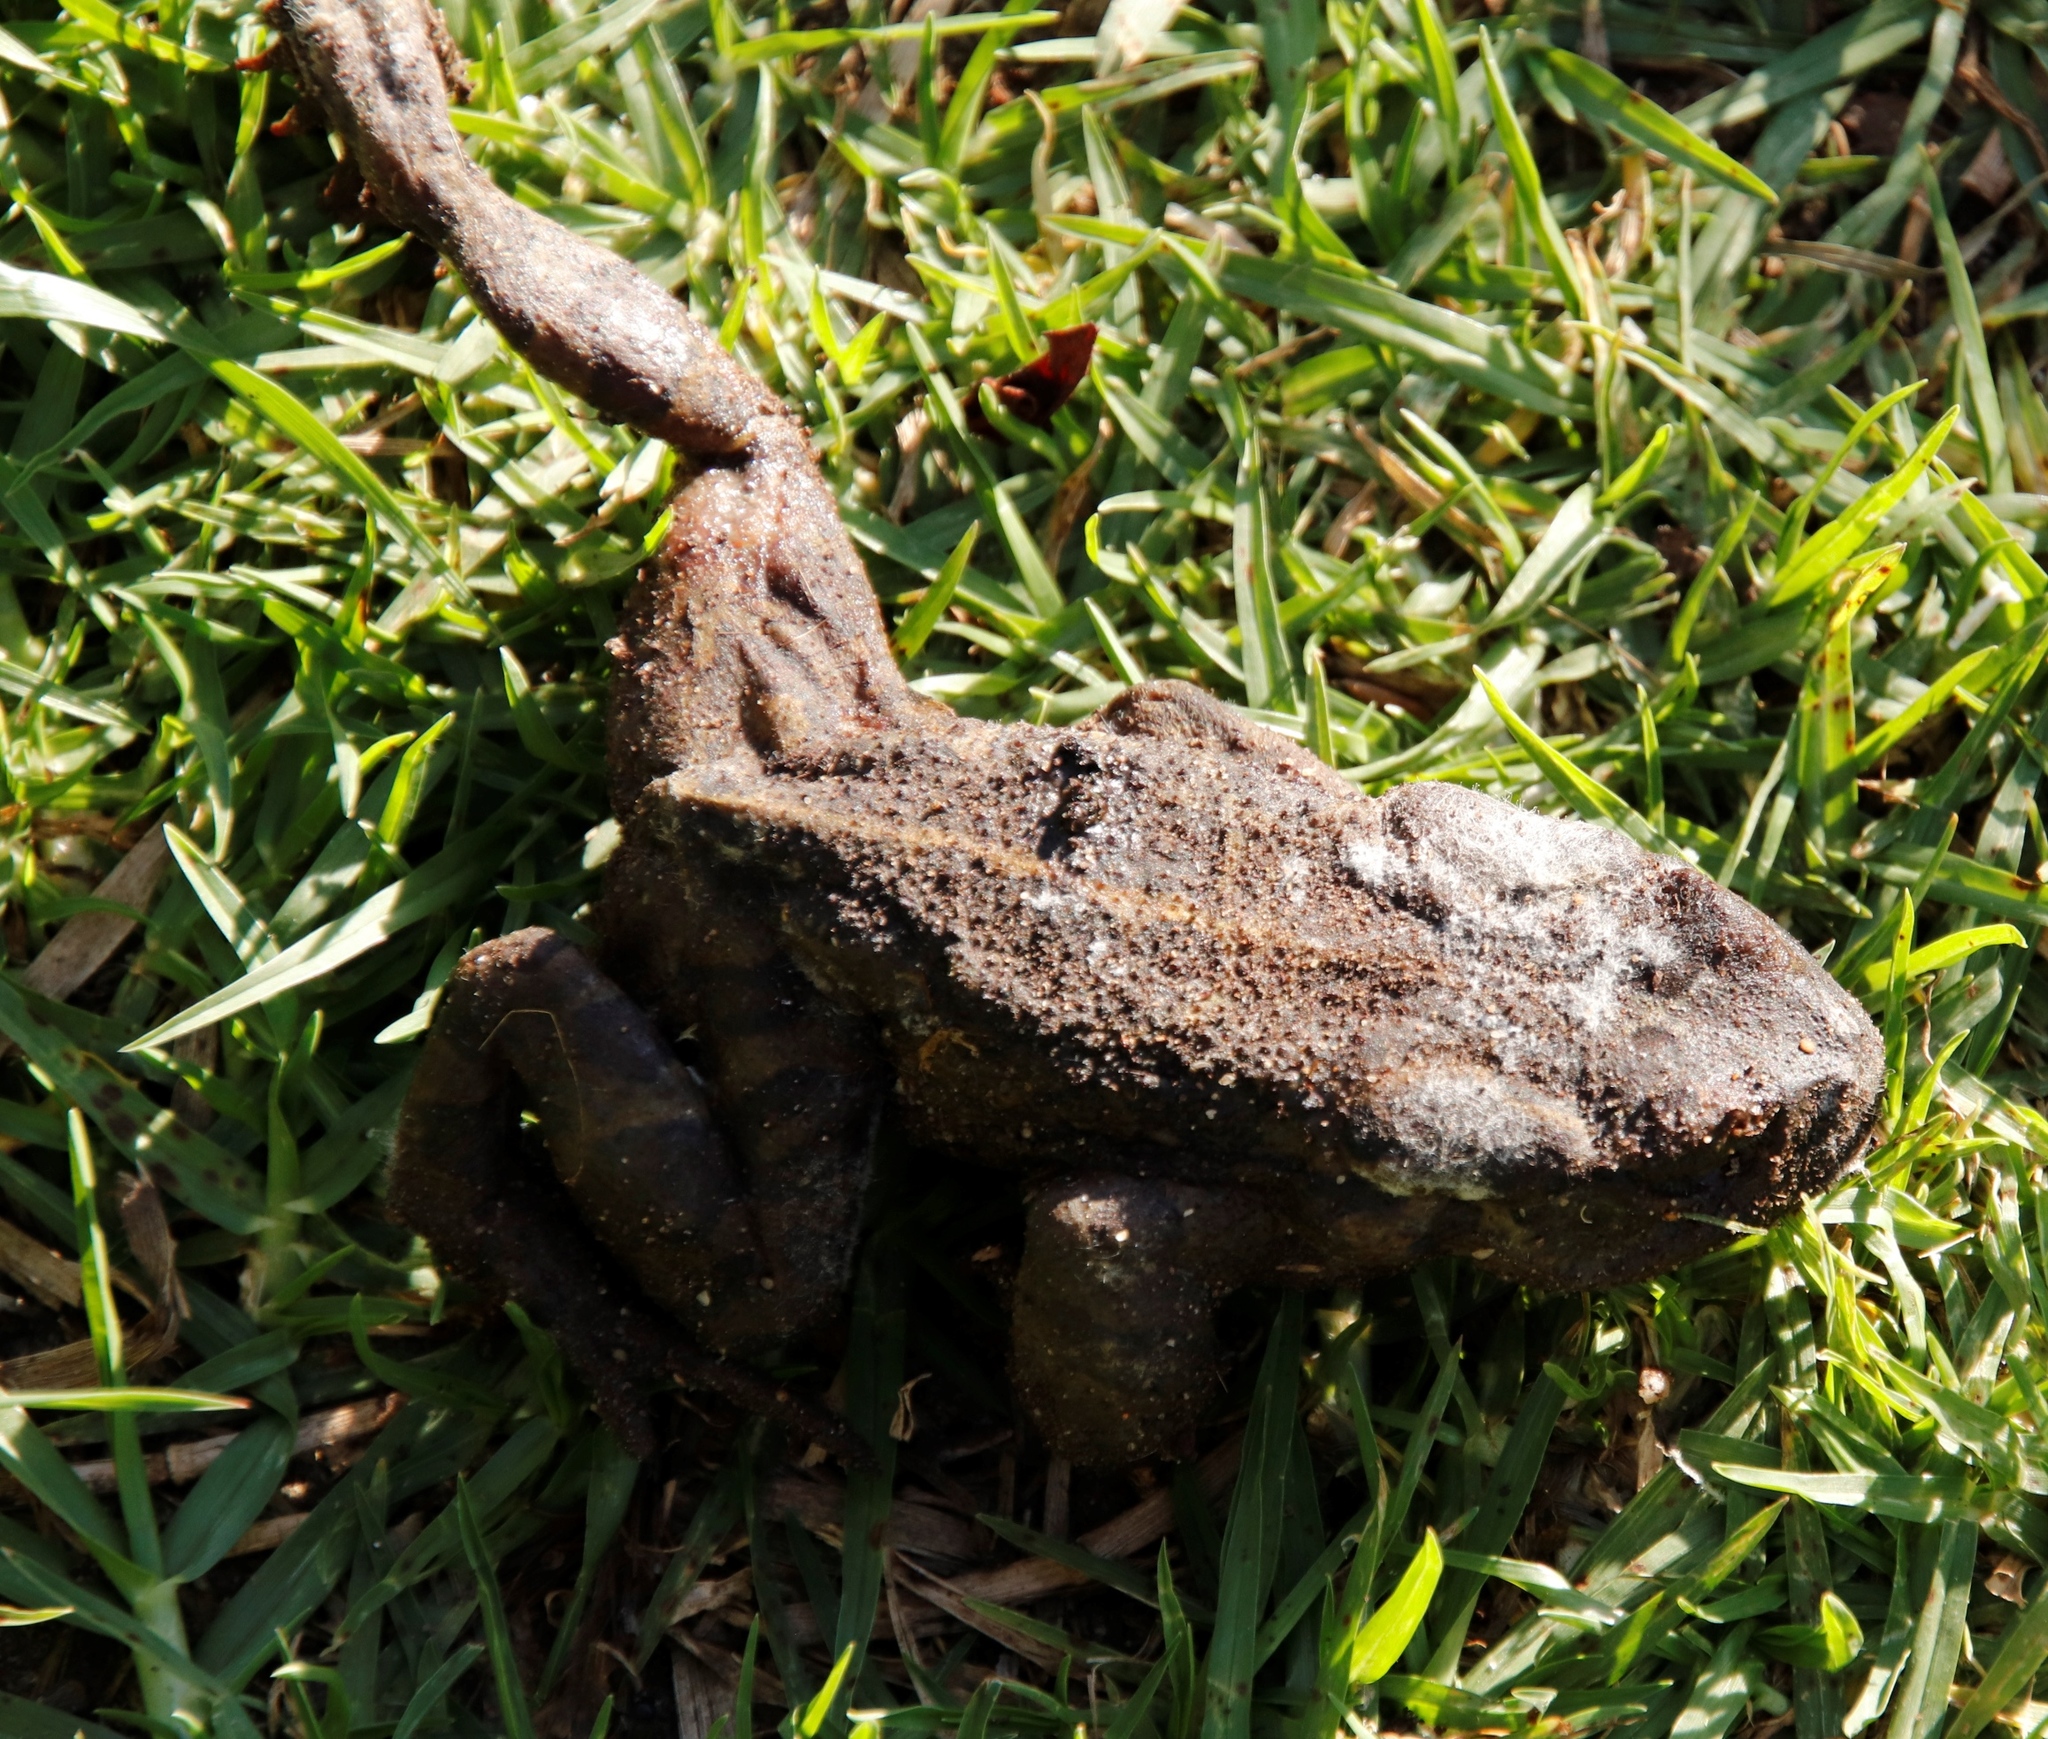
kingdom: Animalia
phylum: Chordata
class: Amphibia
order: Anura
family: Bufonidae
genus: Sclerophrys
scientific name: Sclerophrys pantherina
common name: Panther toad
